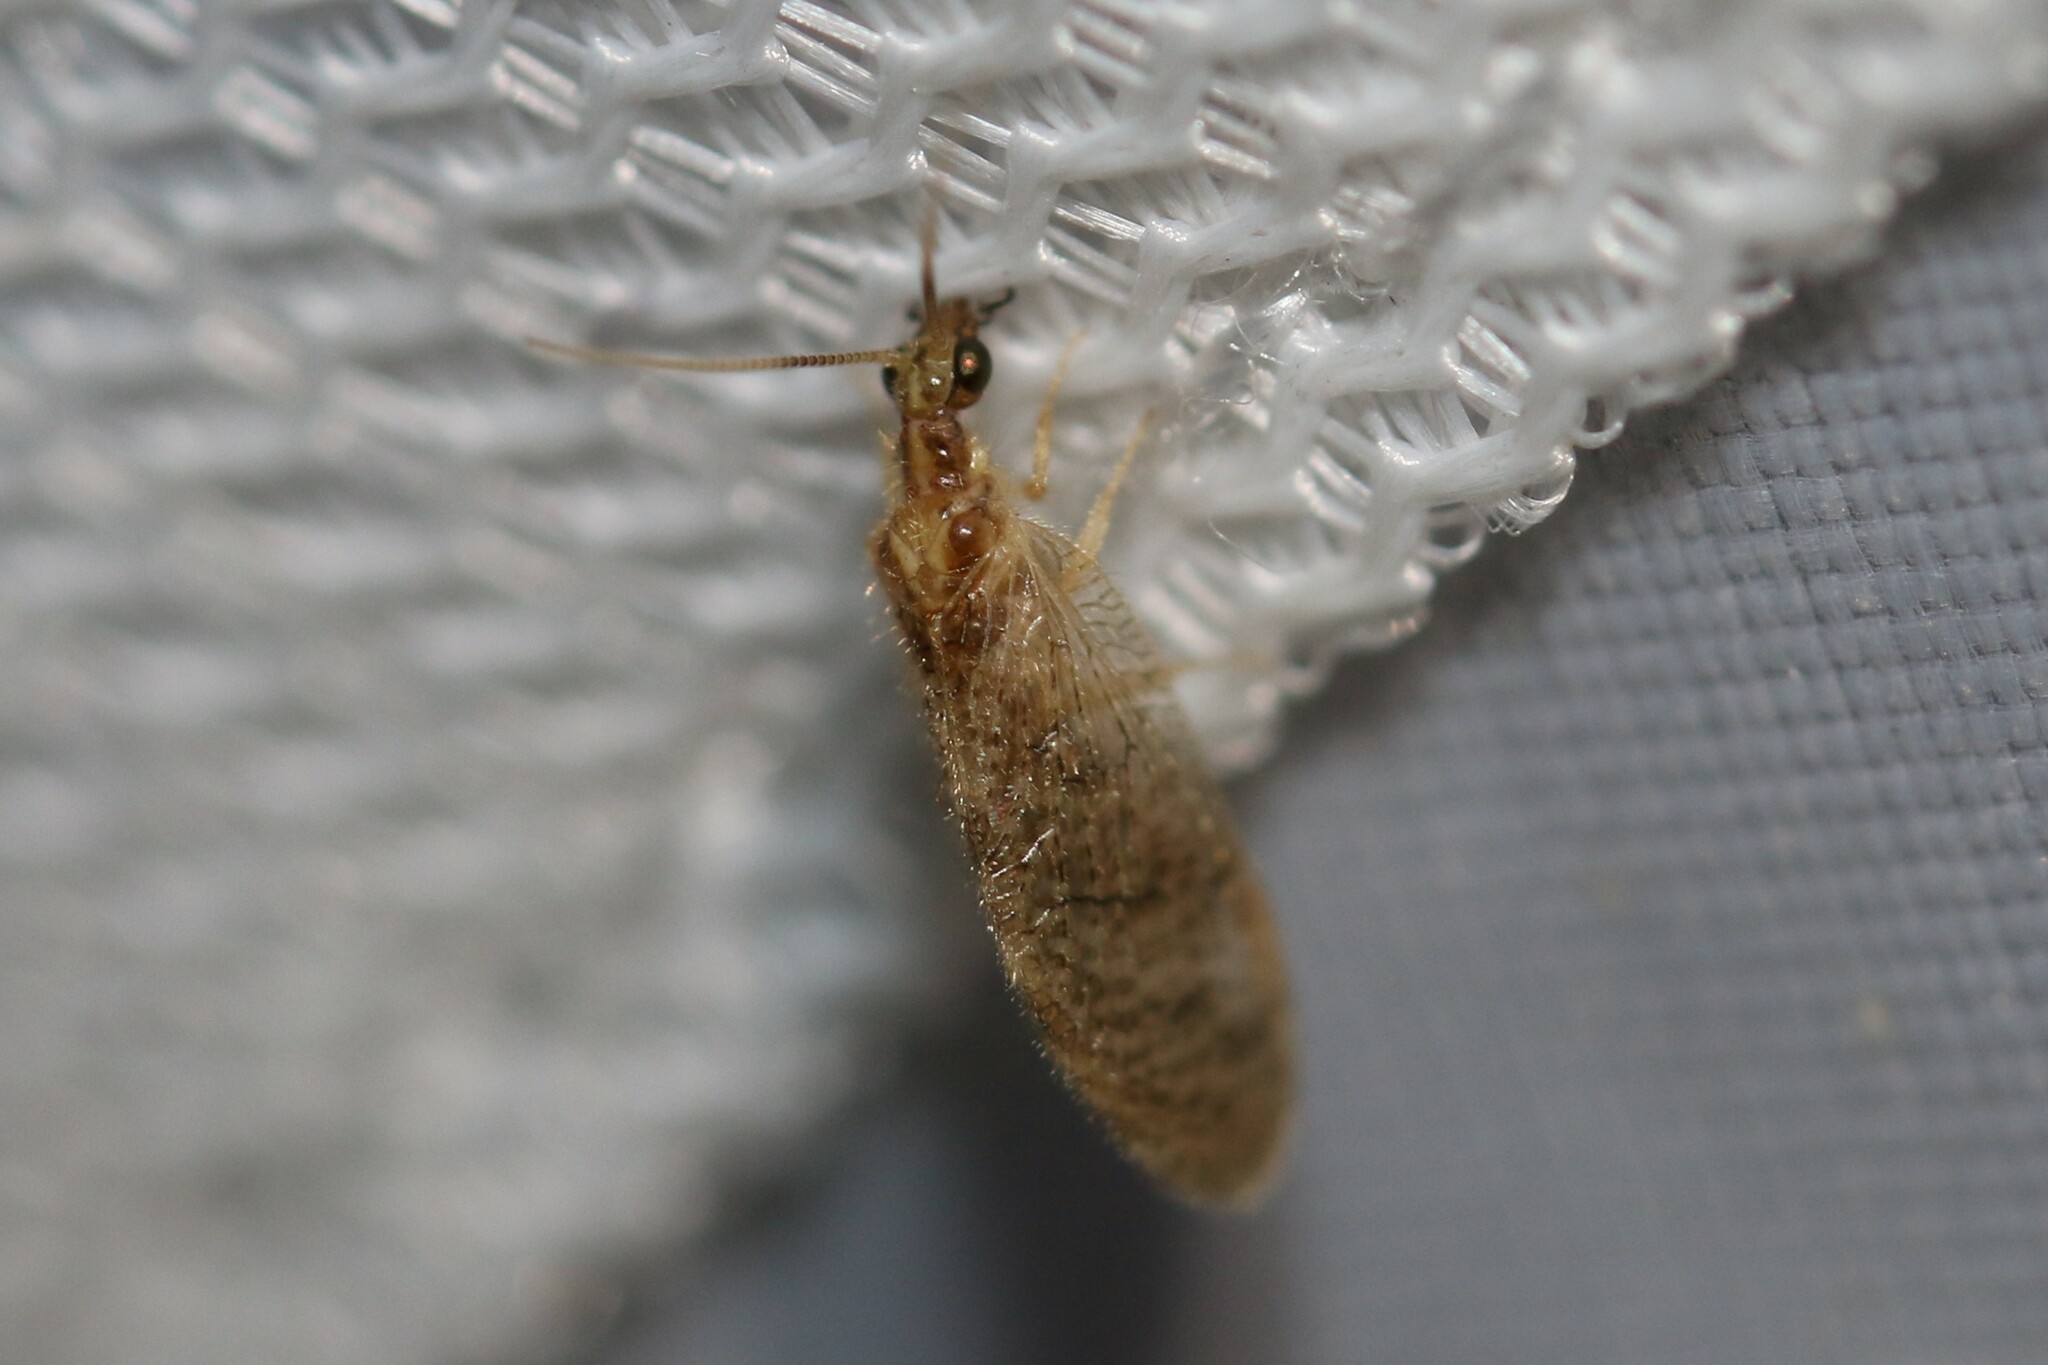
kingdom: Animalia
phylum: Arthropoda
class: Insecta
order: Neuroptera
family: Hemerobiidae
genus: Sympherobius
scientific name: Sympherobius pygmaeus
